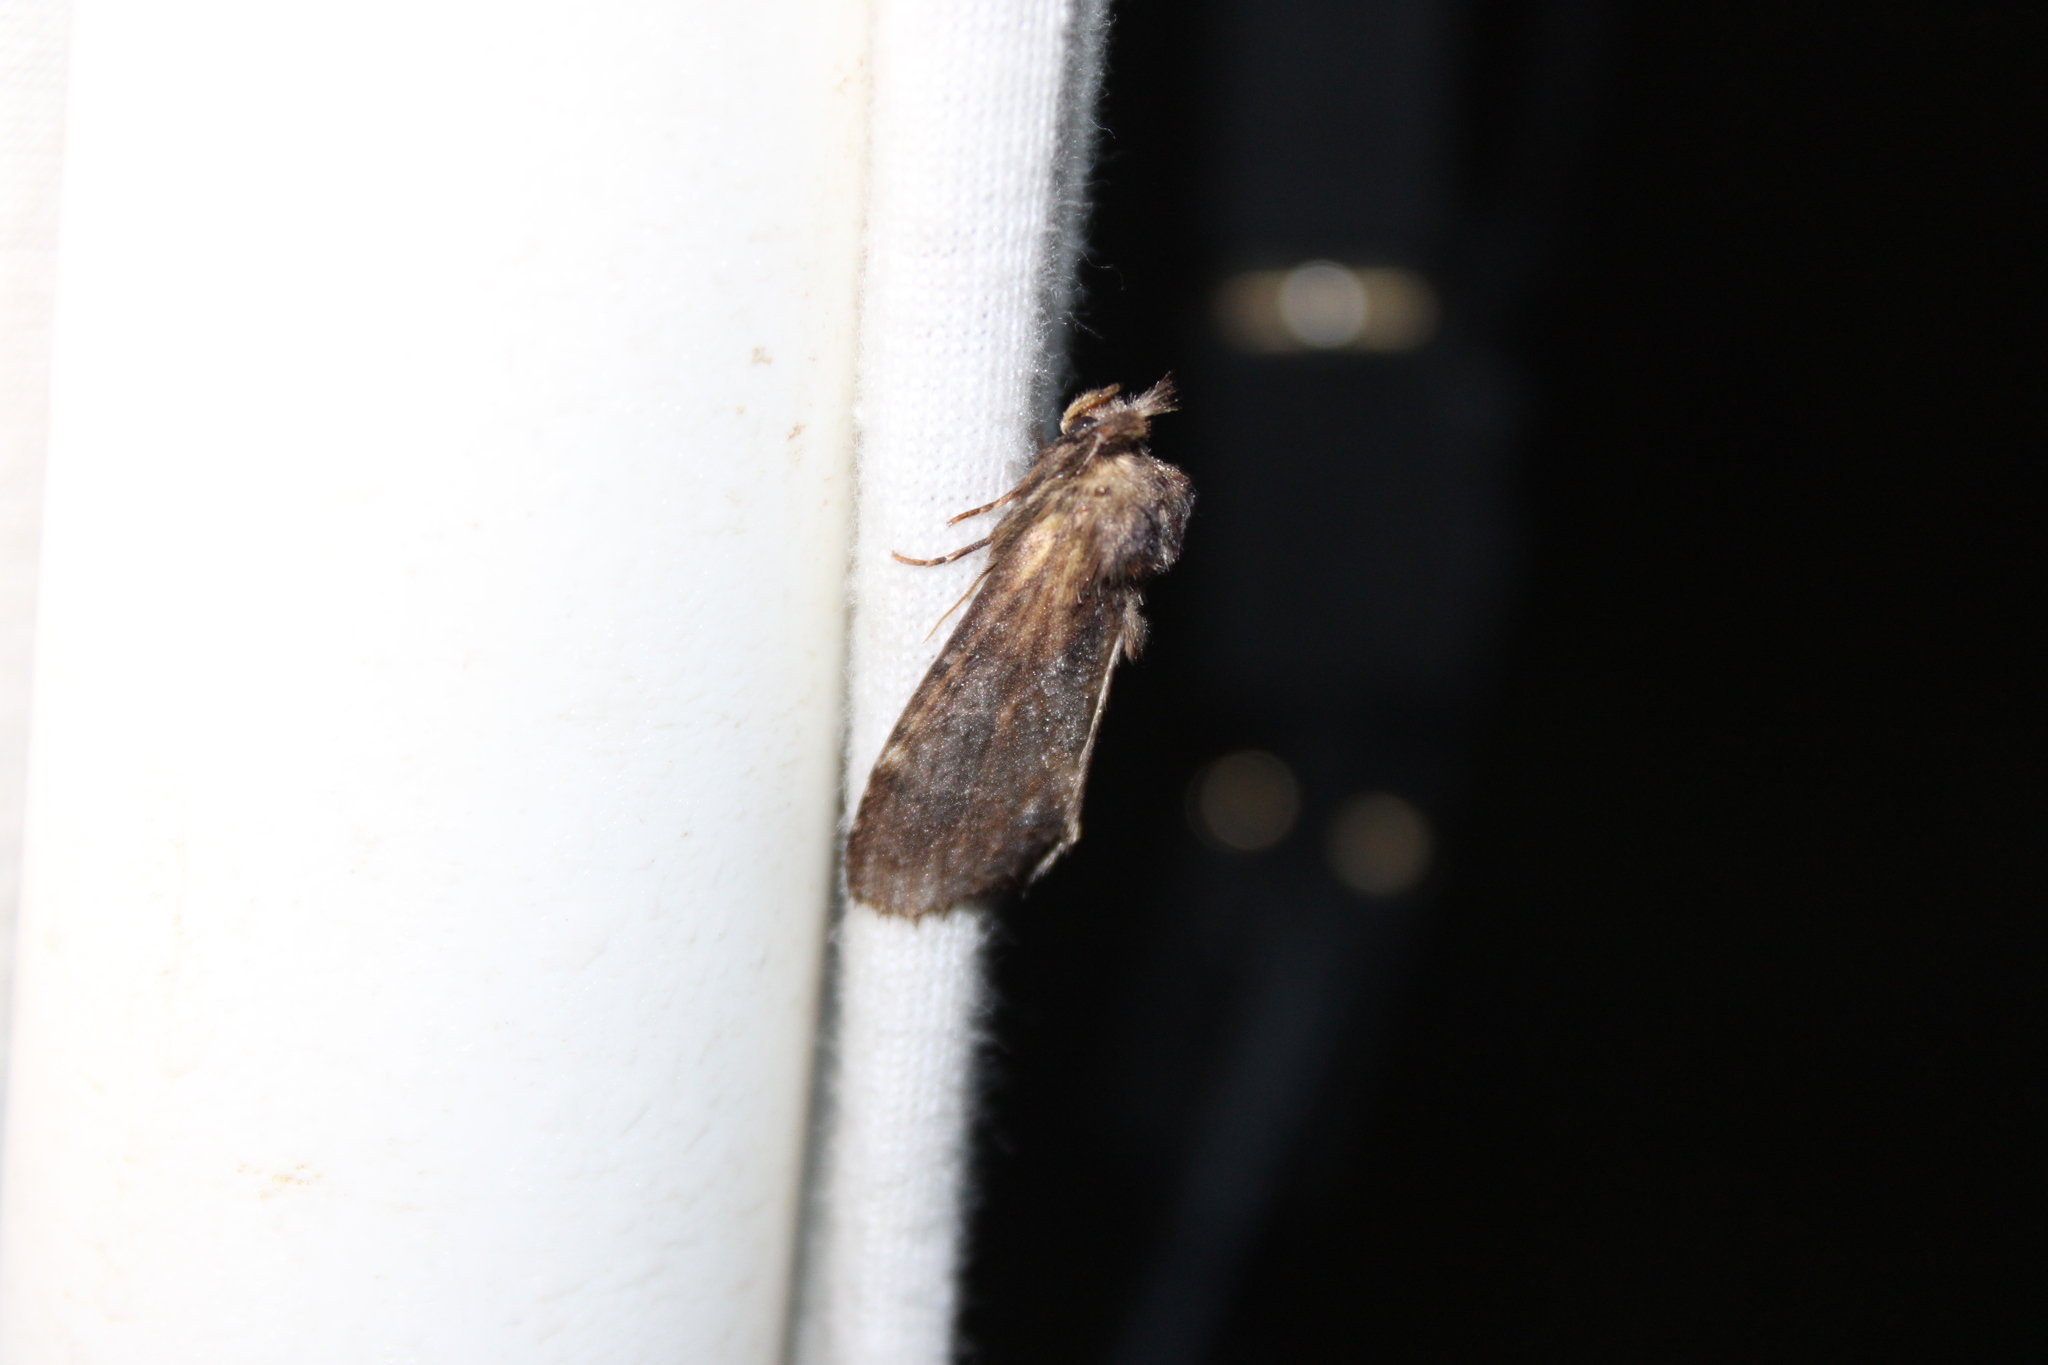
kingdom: Animalia
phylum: Arthropoda
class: Insecta
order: Lepidoptera
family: Notodontidae
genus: Dasylophia
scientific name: Dasylophia thyatiroides
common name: Gray-patched prominent
